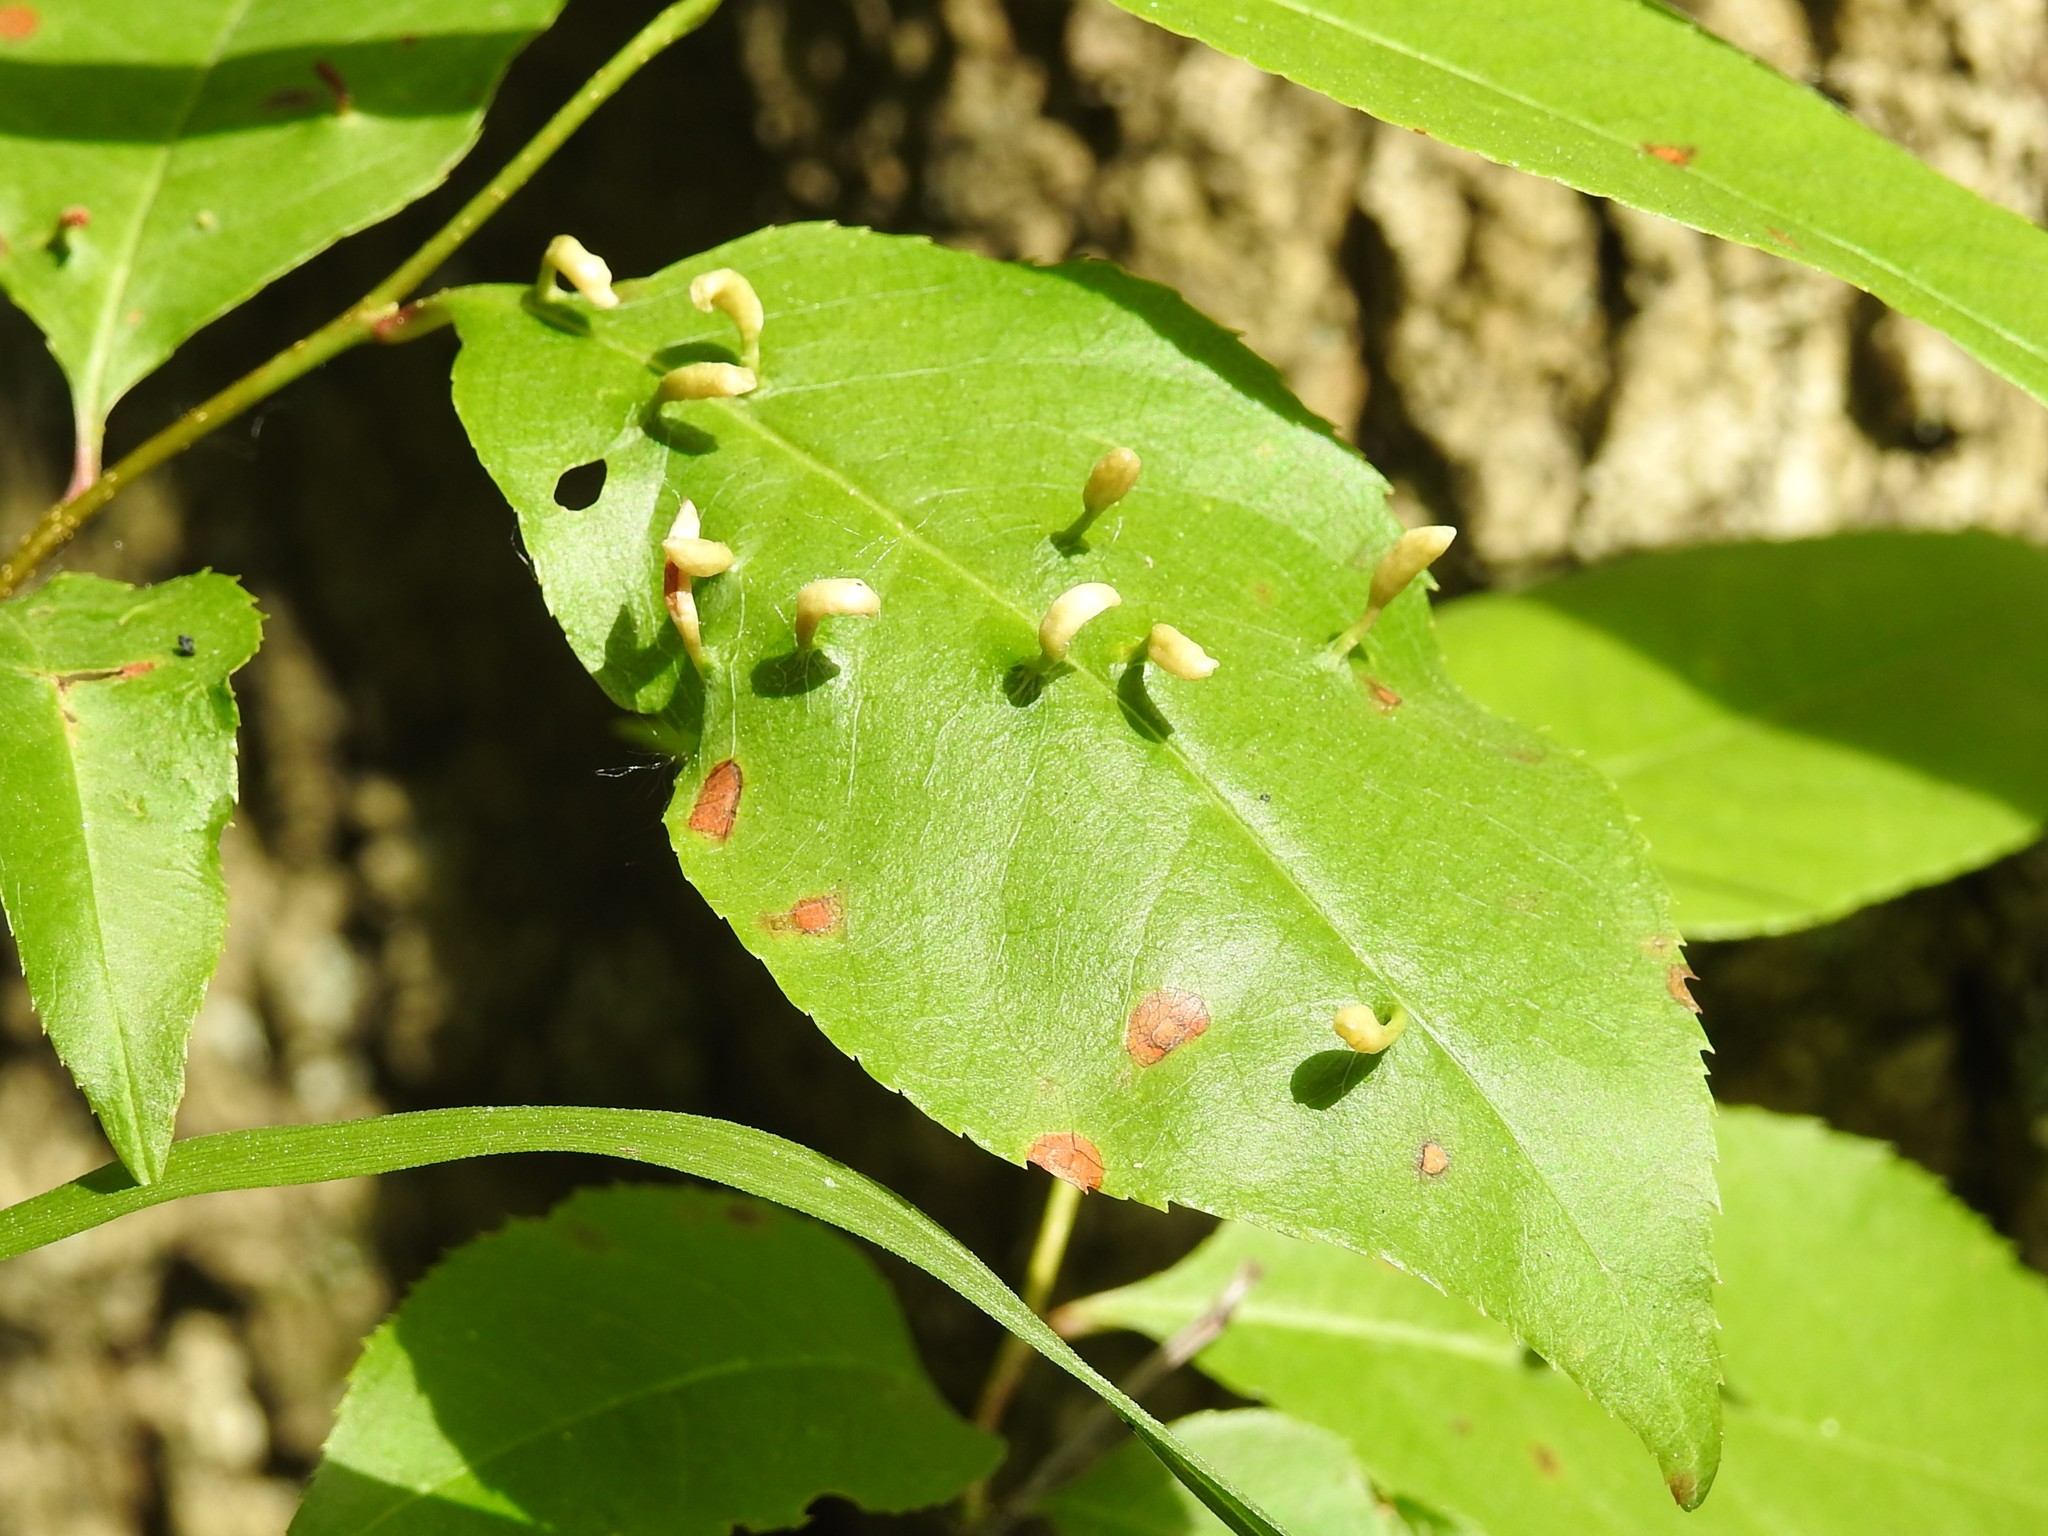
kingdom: Animalia
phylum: Arthropoda
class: Arachnida
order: Trombidiformes
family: Eriophyidae
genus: Eriophyes
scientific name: Eriophyes
